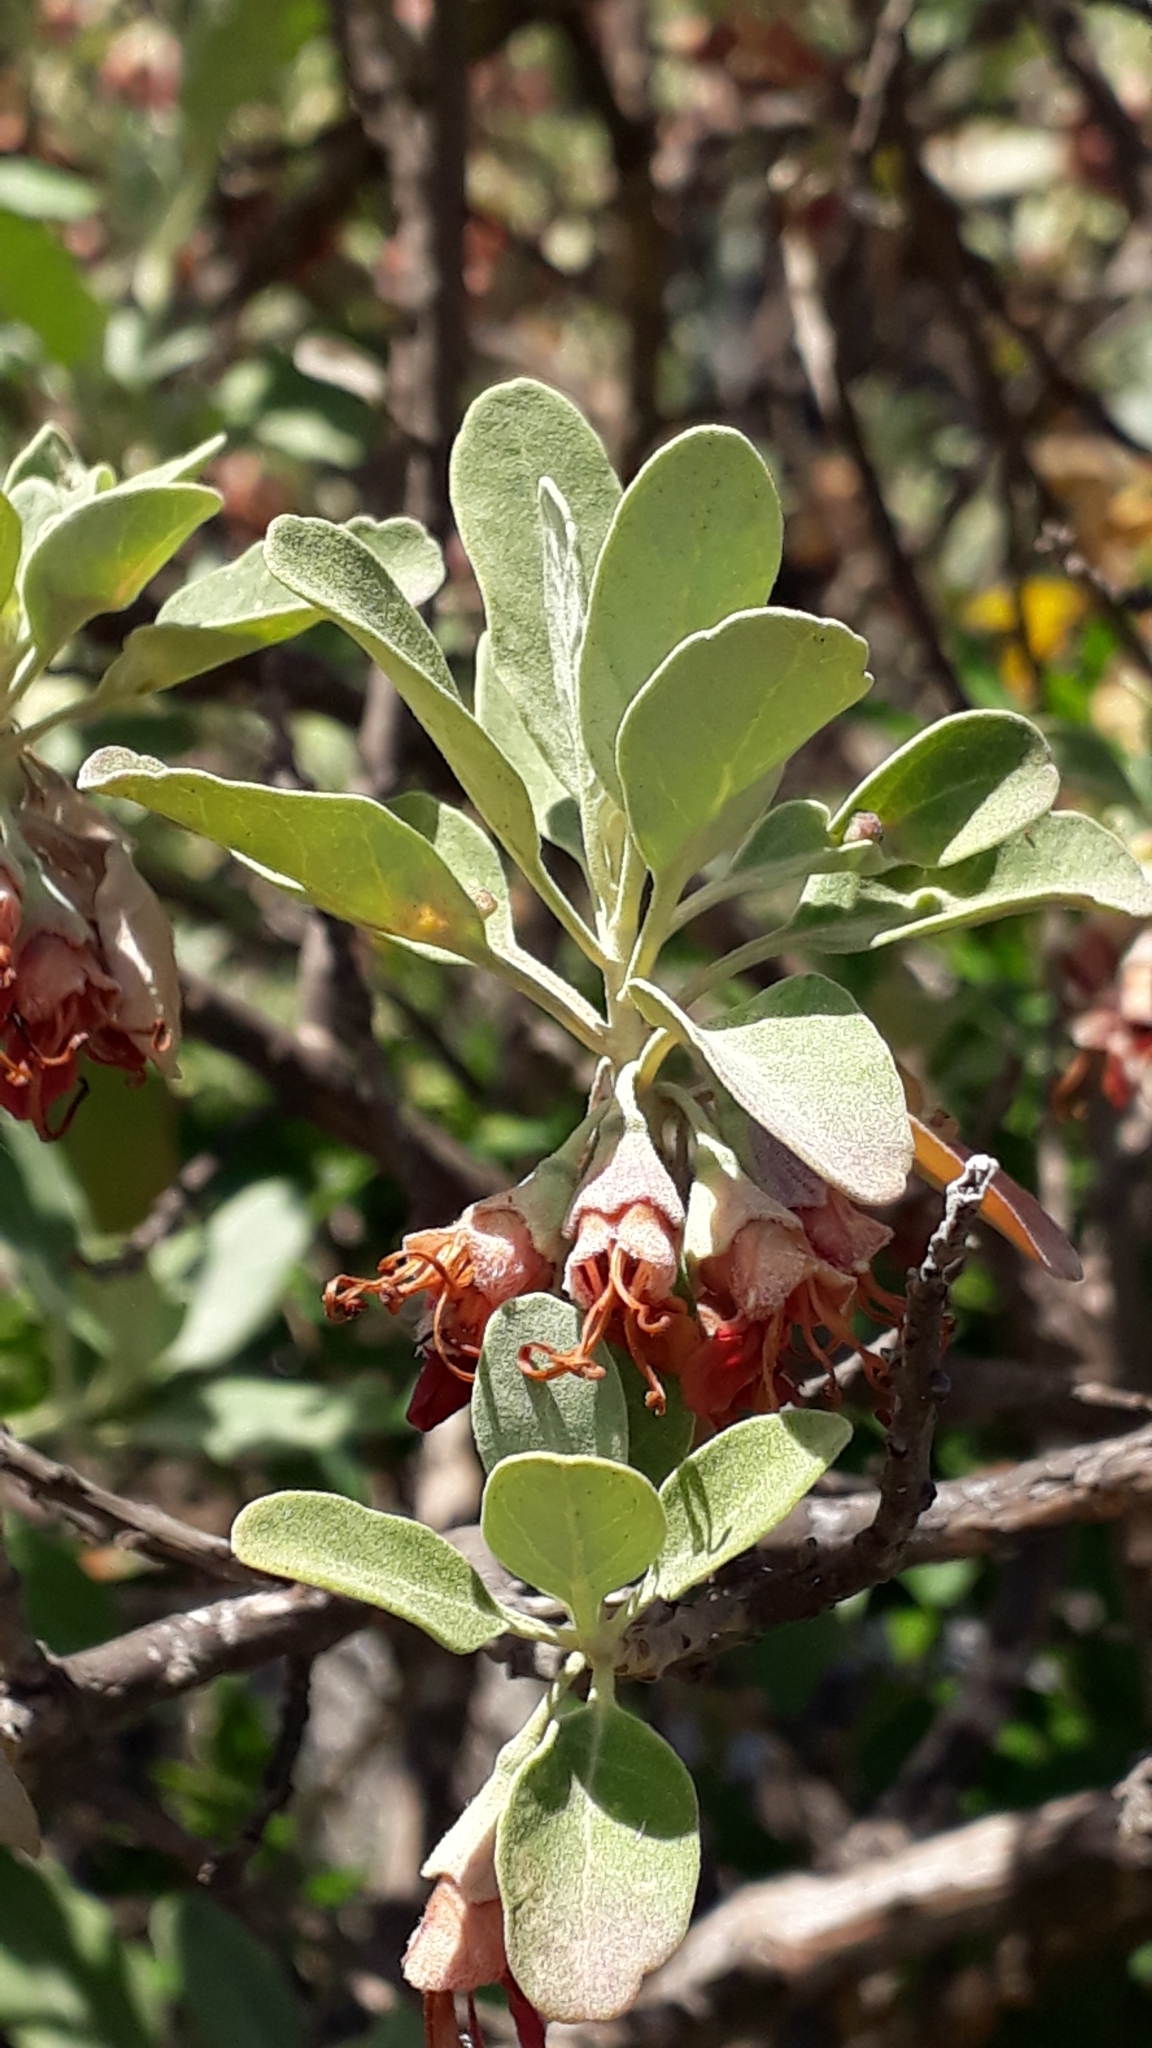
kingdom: Plantae
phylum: Tracheophyta
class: Magnoliopsida
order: Lamiales
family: Lamiaceae
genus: Teucrium
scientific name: Teucrium heterophyllum
